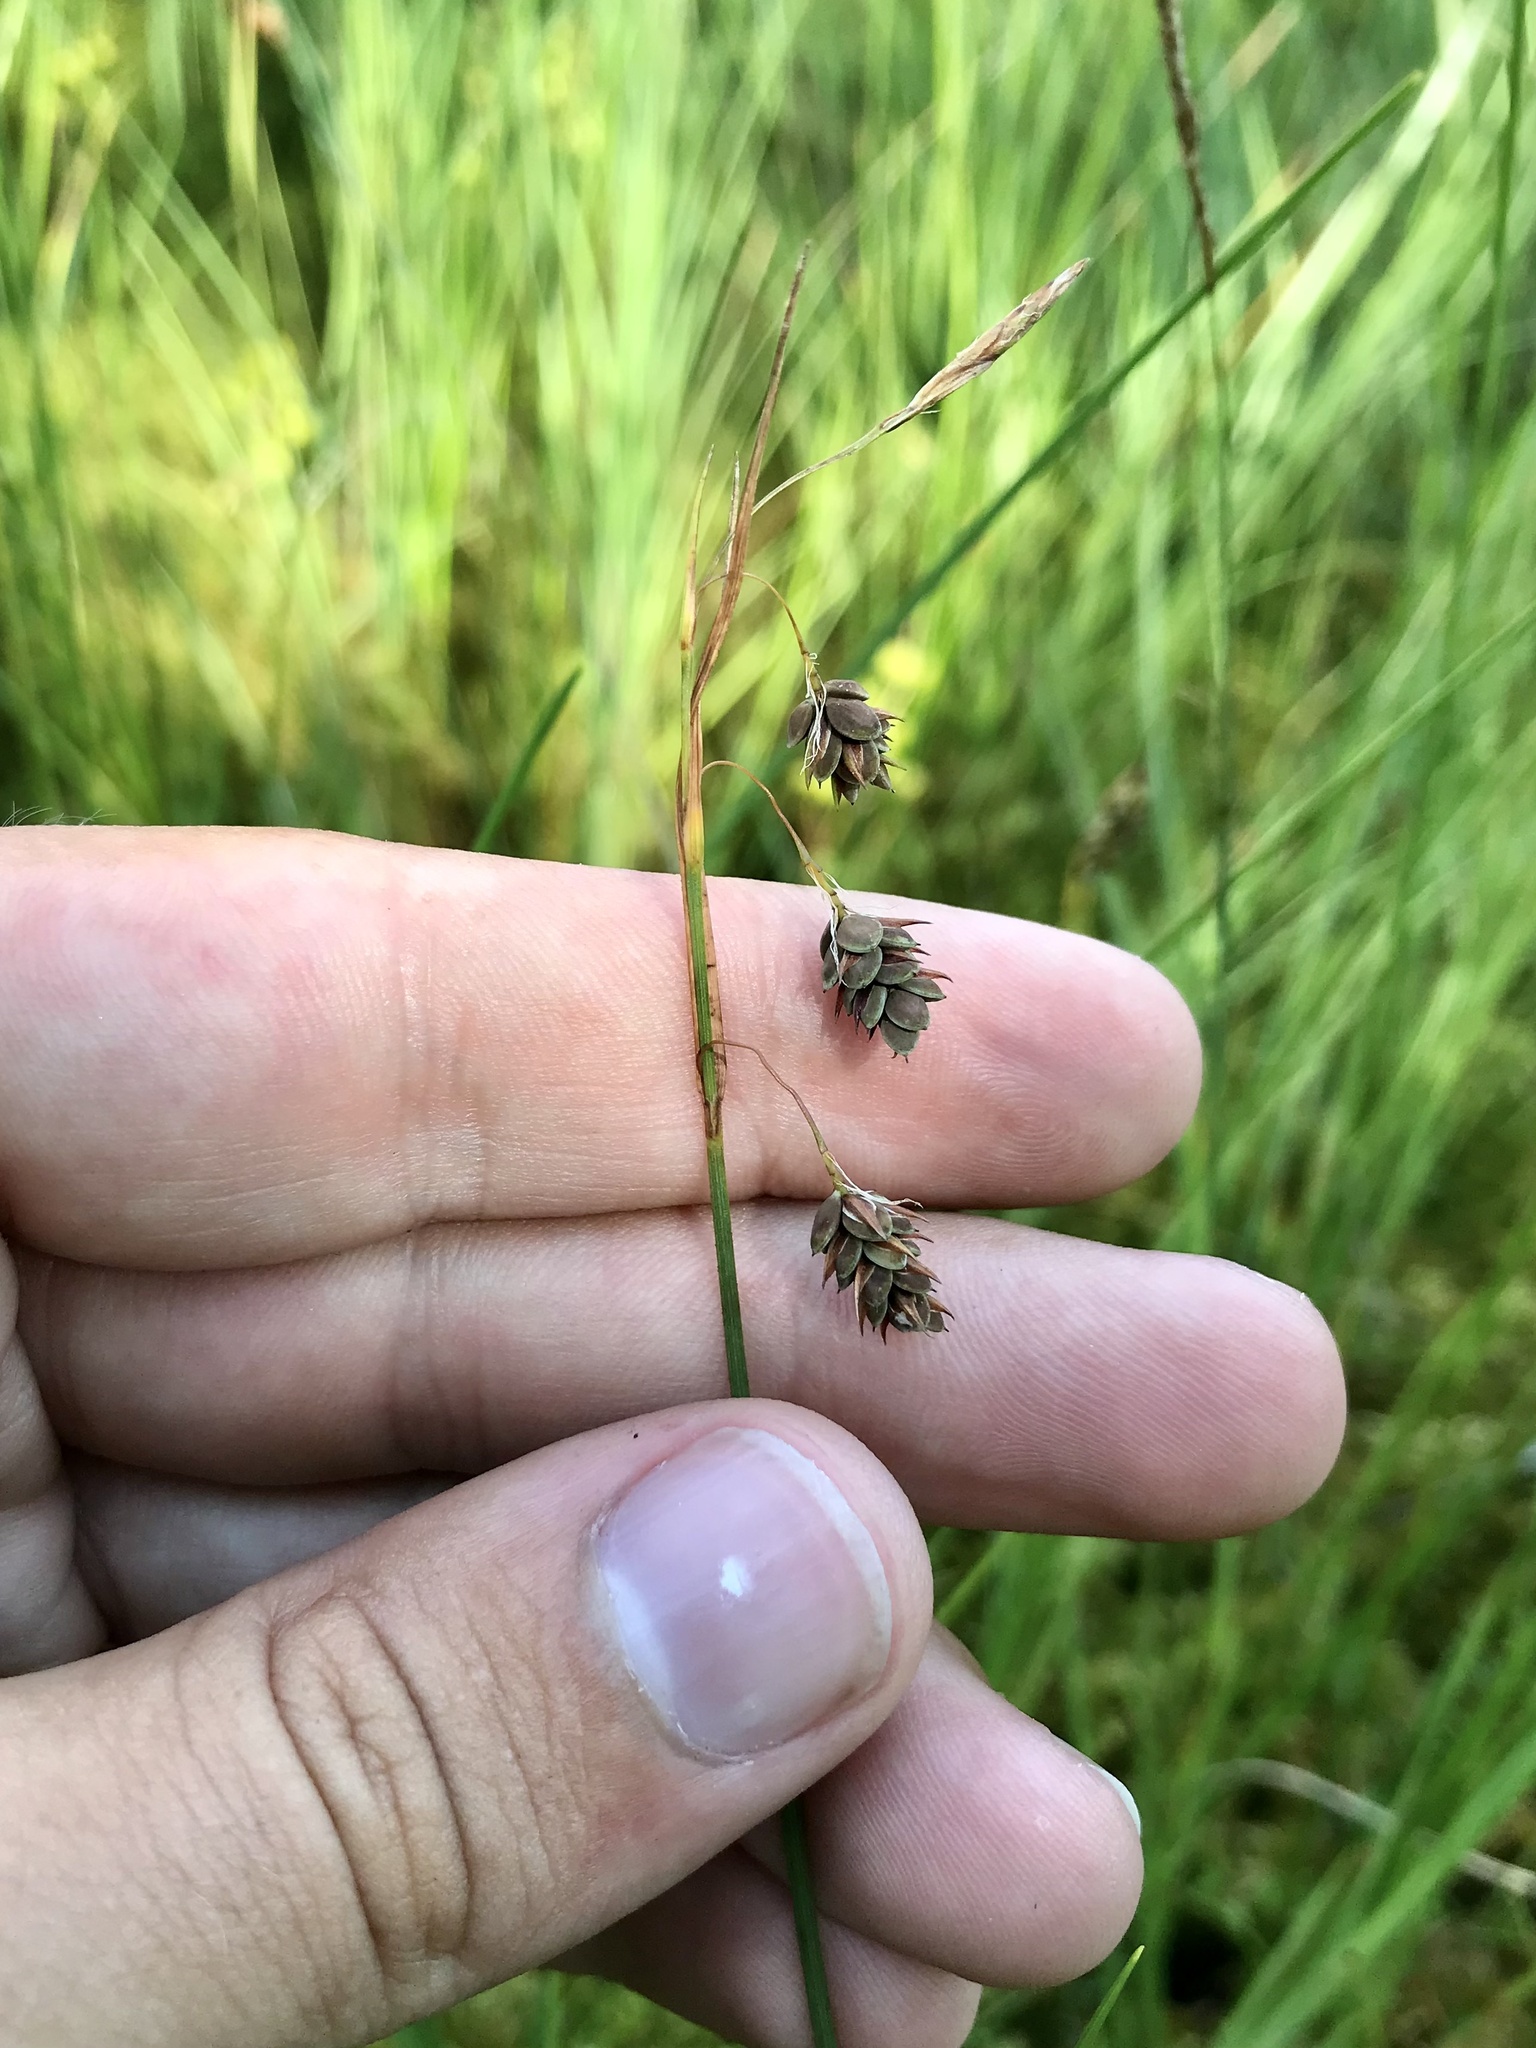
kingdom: Plantae
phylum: Tracheophyta
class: Liliopsida
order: Poales
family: Cyperaceae
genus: Carex
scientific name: Carex magellanica
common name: Bog sedge
